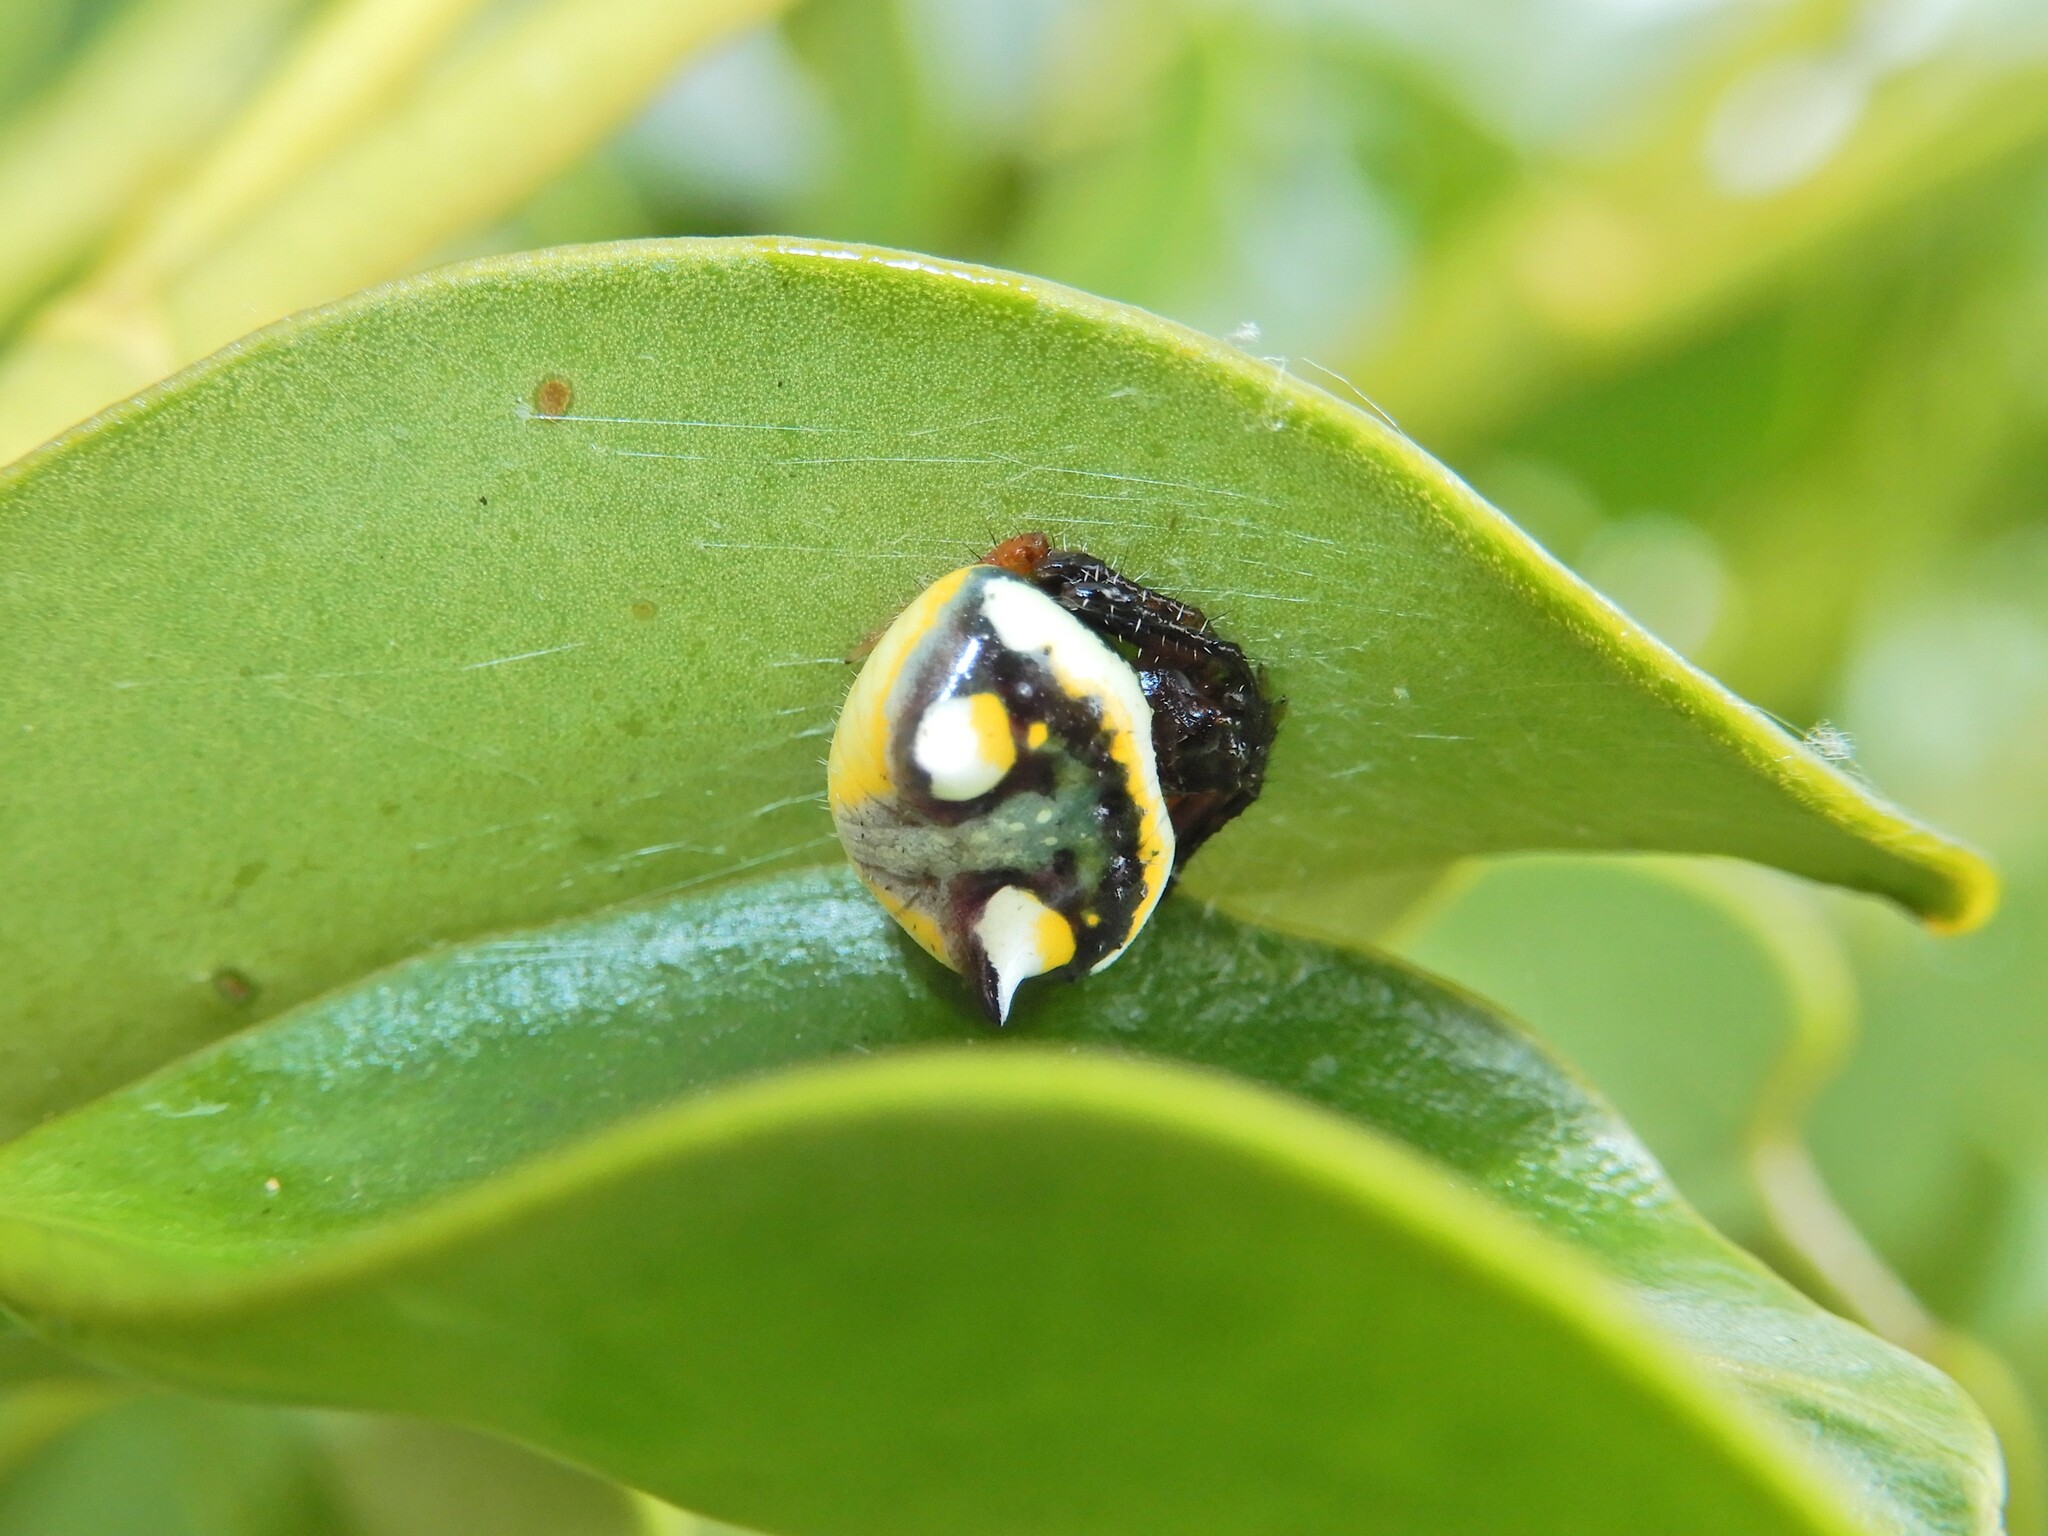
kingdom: Animalia
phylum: Arthropoda
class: Arachnida
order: Araneae
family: Araneidae
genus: Poecilopachys
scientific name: Poecilopachys australasia
